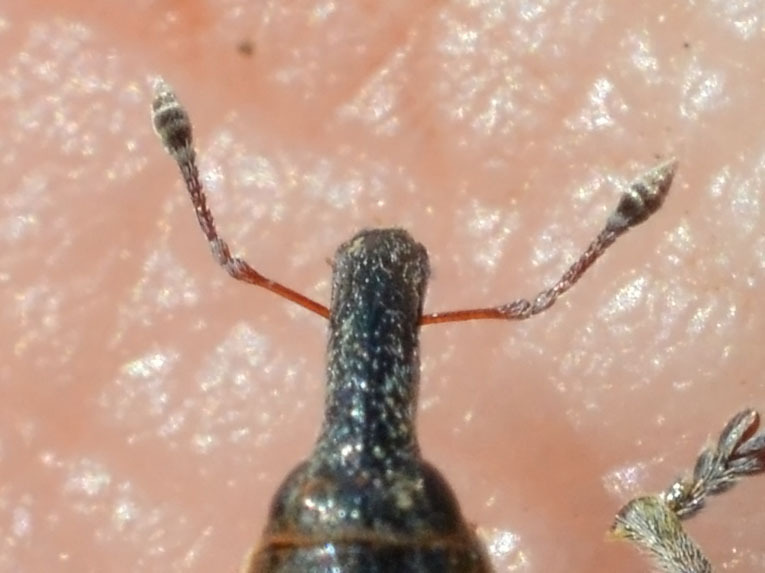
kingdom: Animalia
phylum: Arthropoda
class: Insecta
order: Coleoptera
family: Curculionidae
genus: Lixus
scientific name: Lixus subtilis
